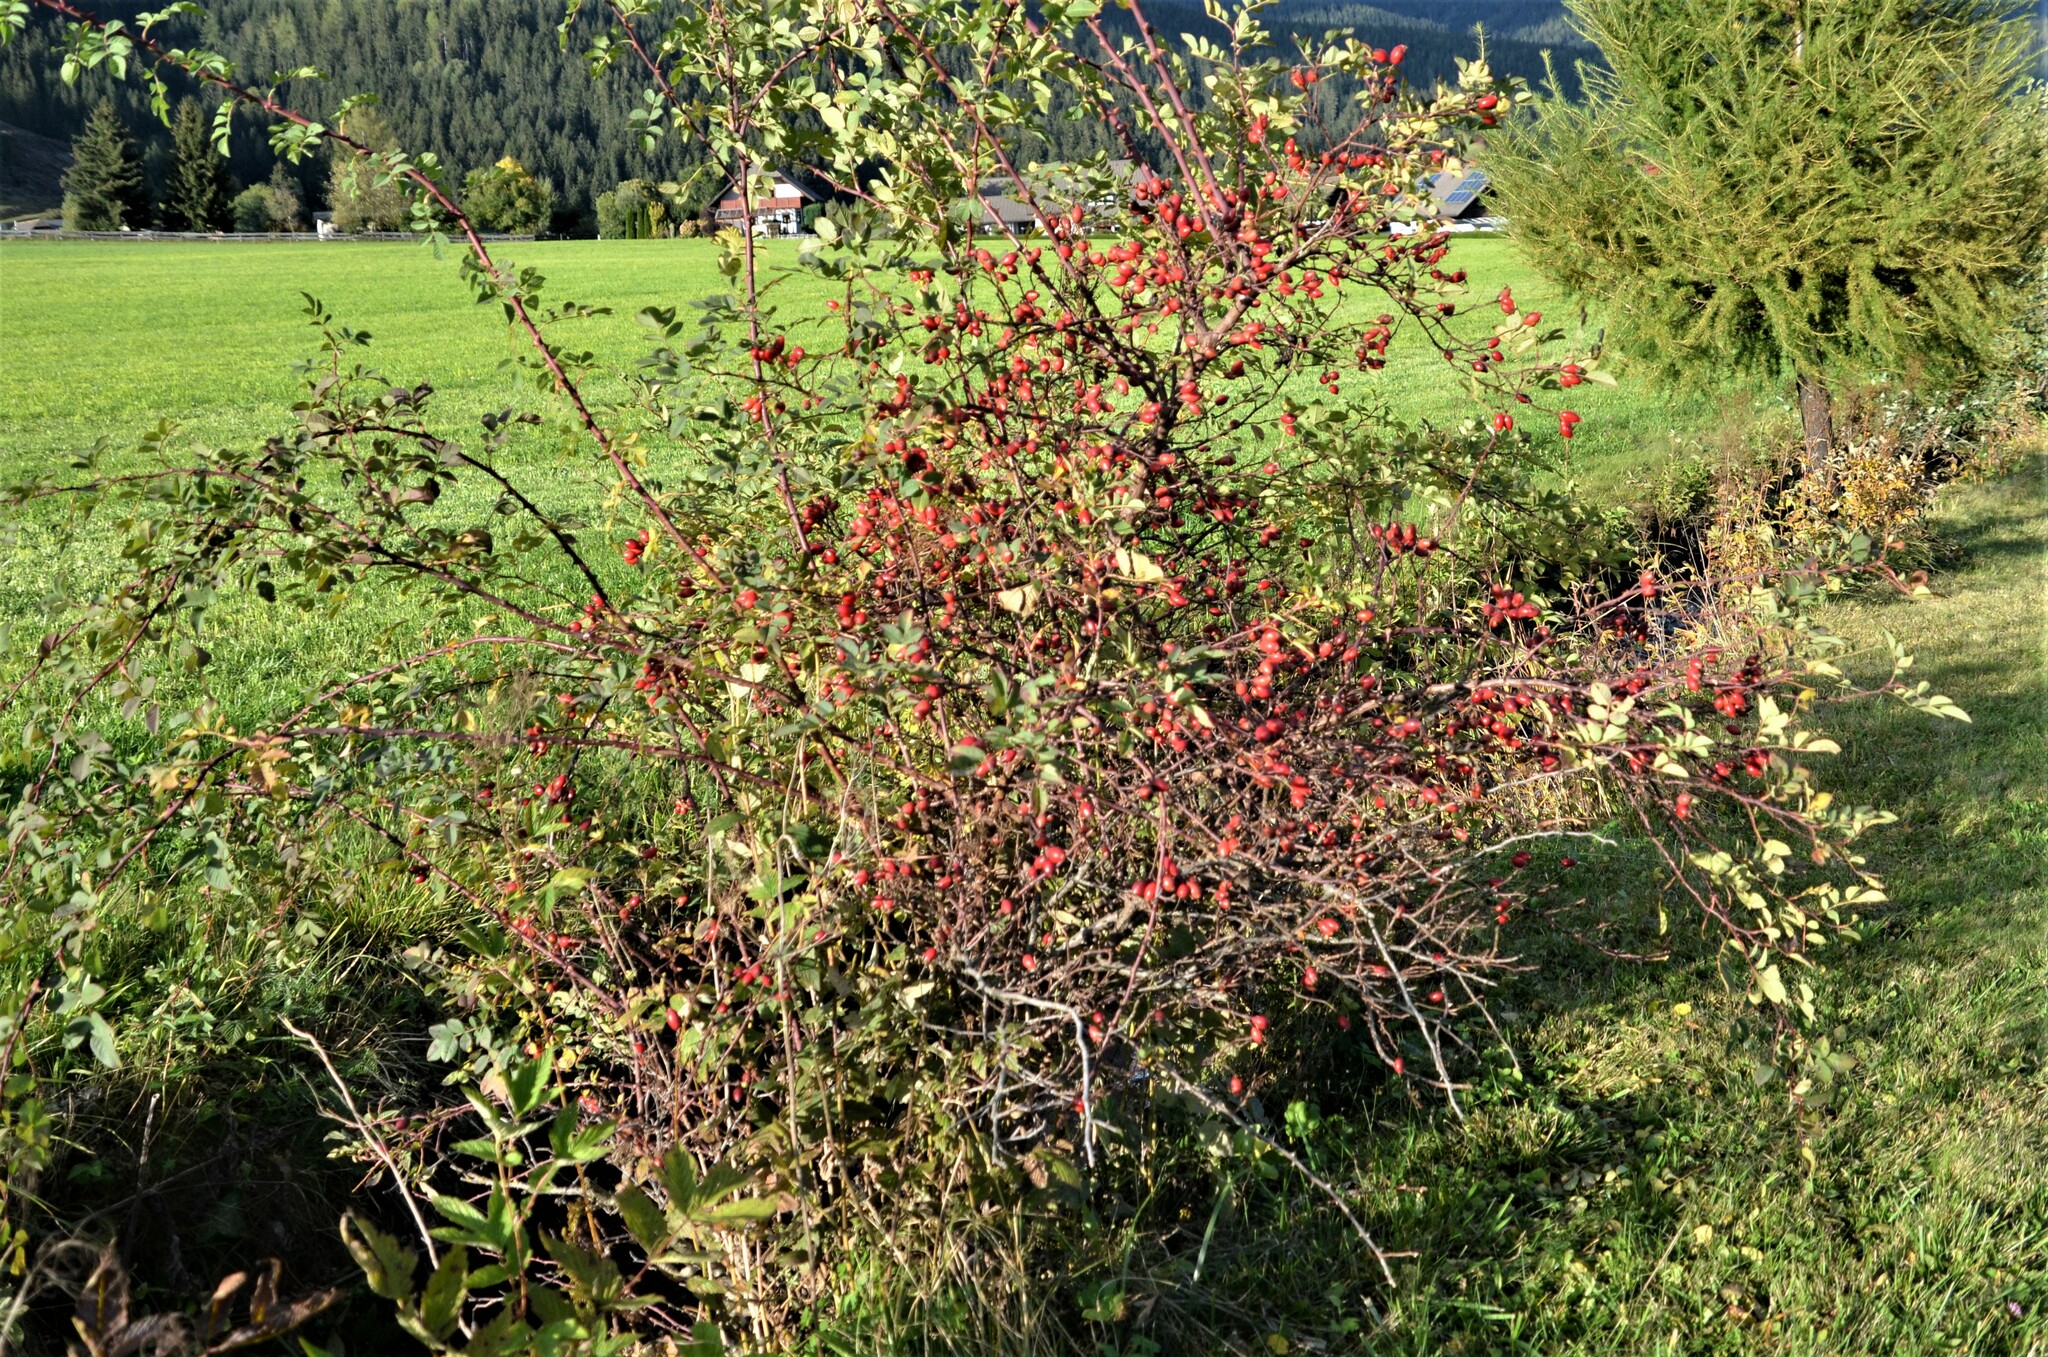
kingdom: Plantae
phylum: Tracheophyta
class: Magnoliopsida
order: Rosales
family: Rosaceae
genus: Rosa
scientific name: Rosa canina
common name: Dog rose
